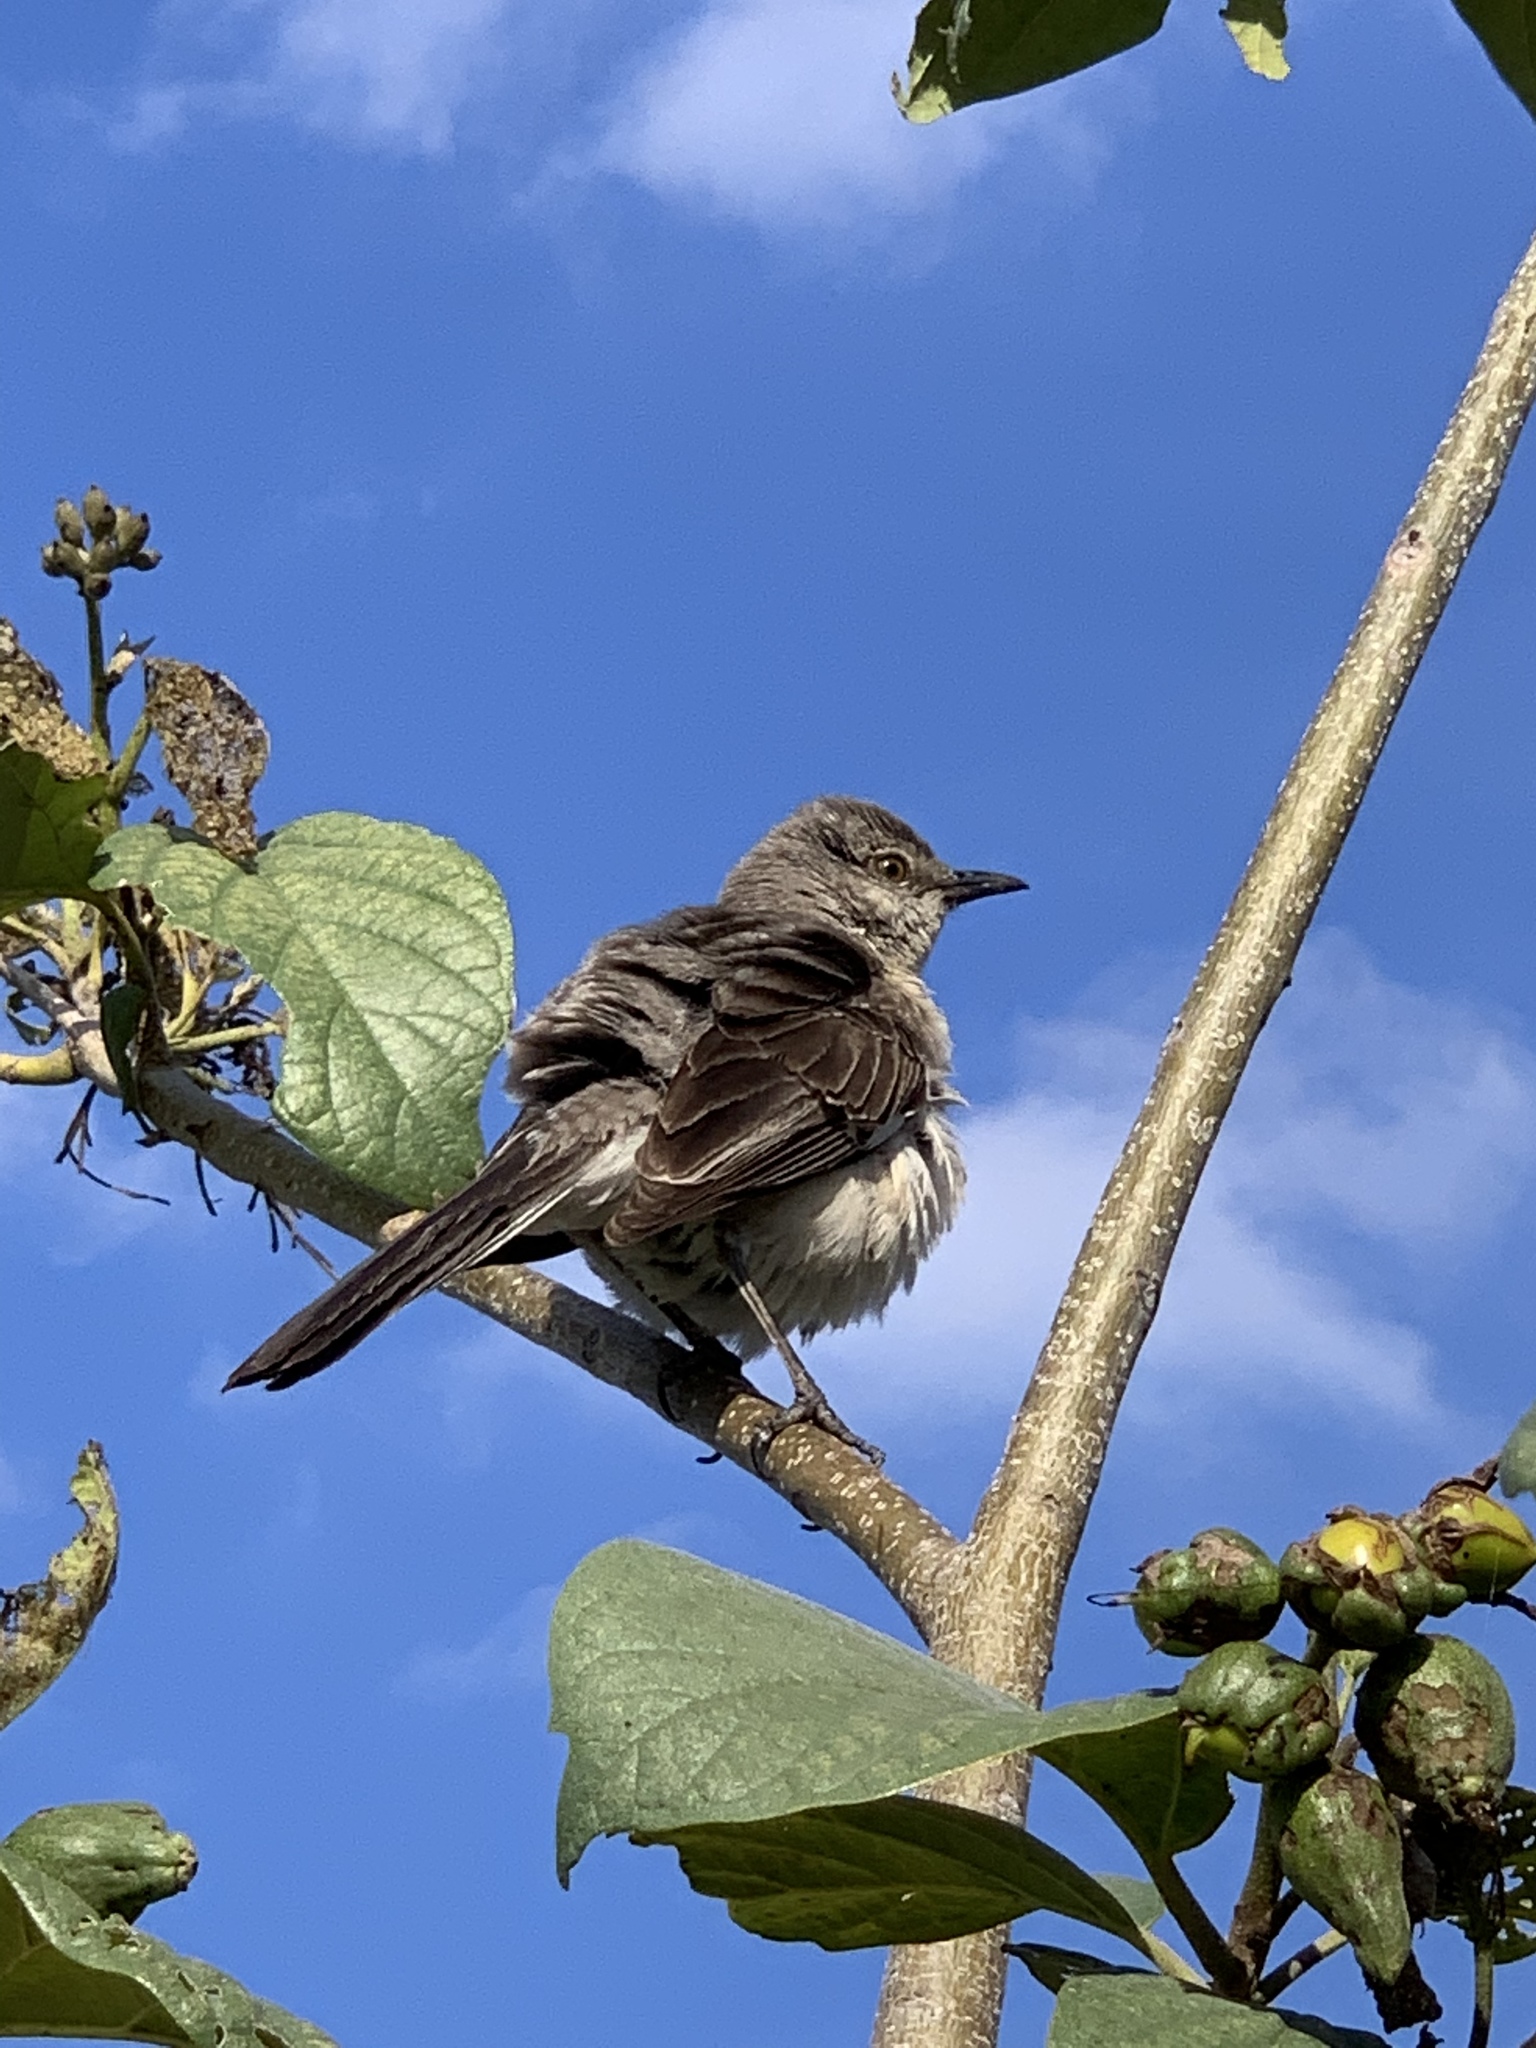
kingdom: Animalia
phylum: Chordata
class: Aves
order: Passeriformes
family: Mimidae
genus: Mimus
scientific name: Mimus polyglottos
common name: Northern mockingbird
